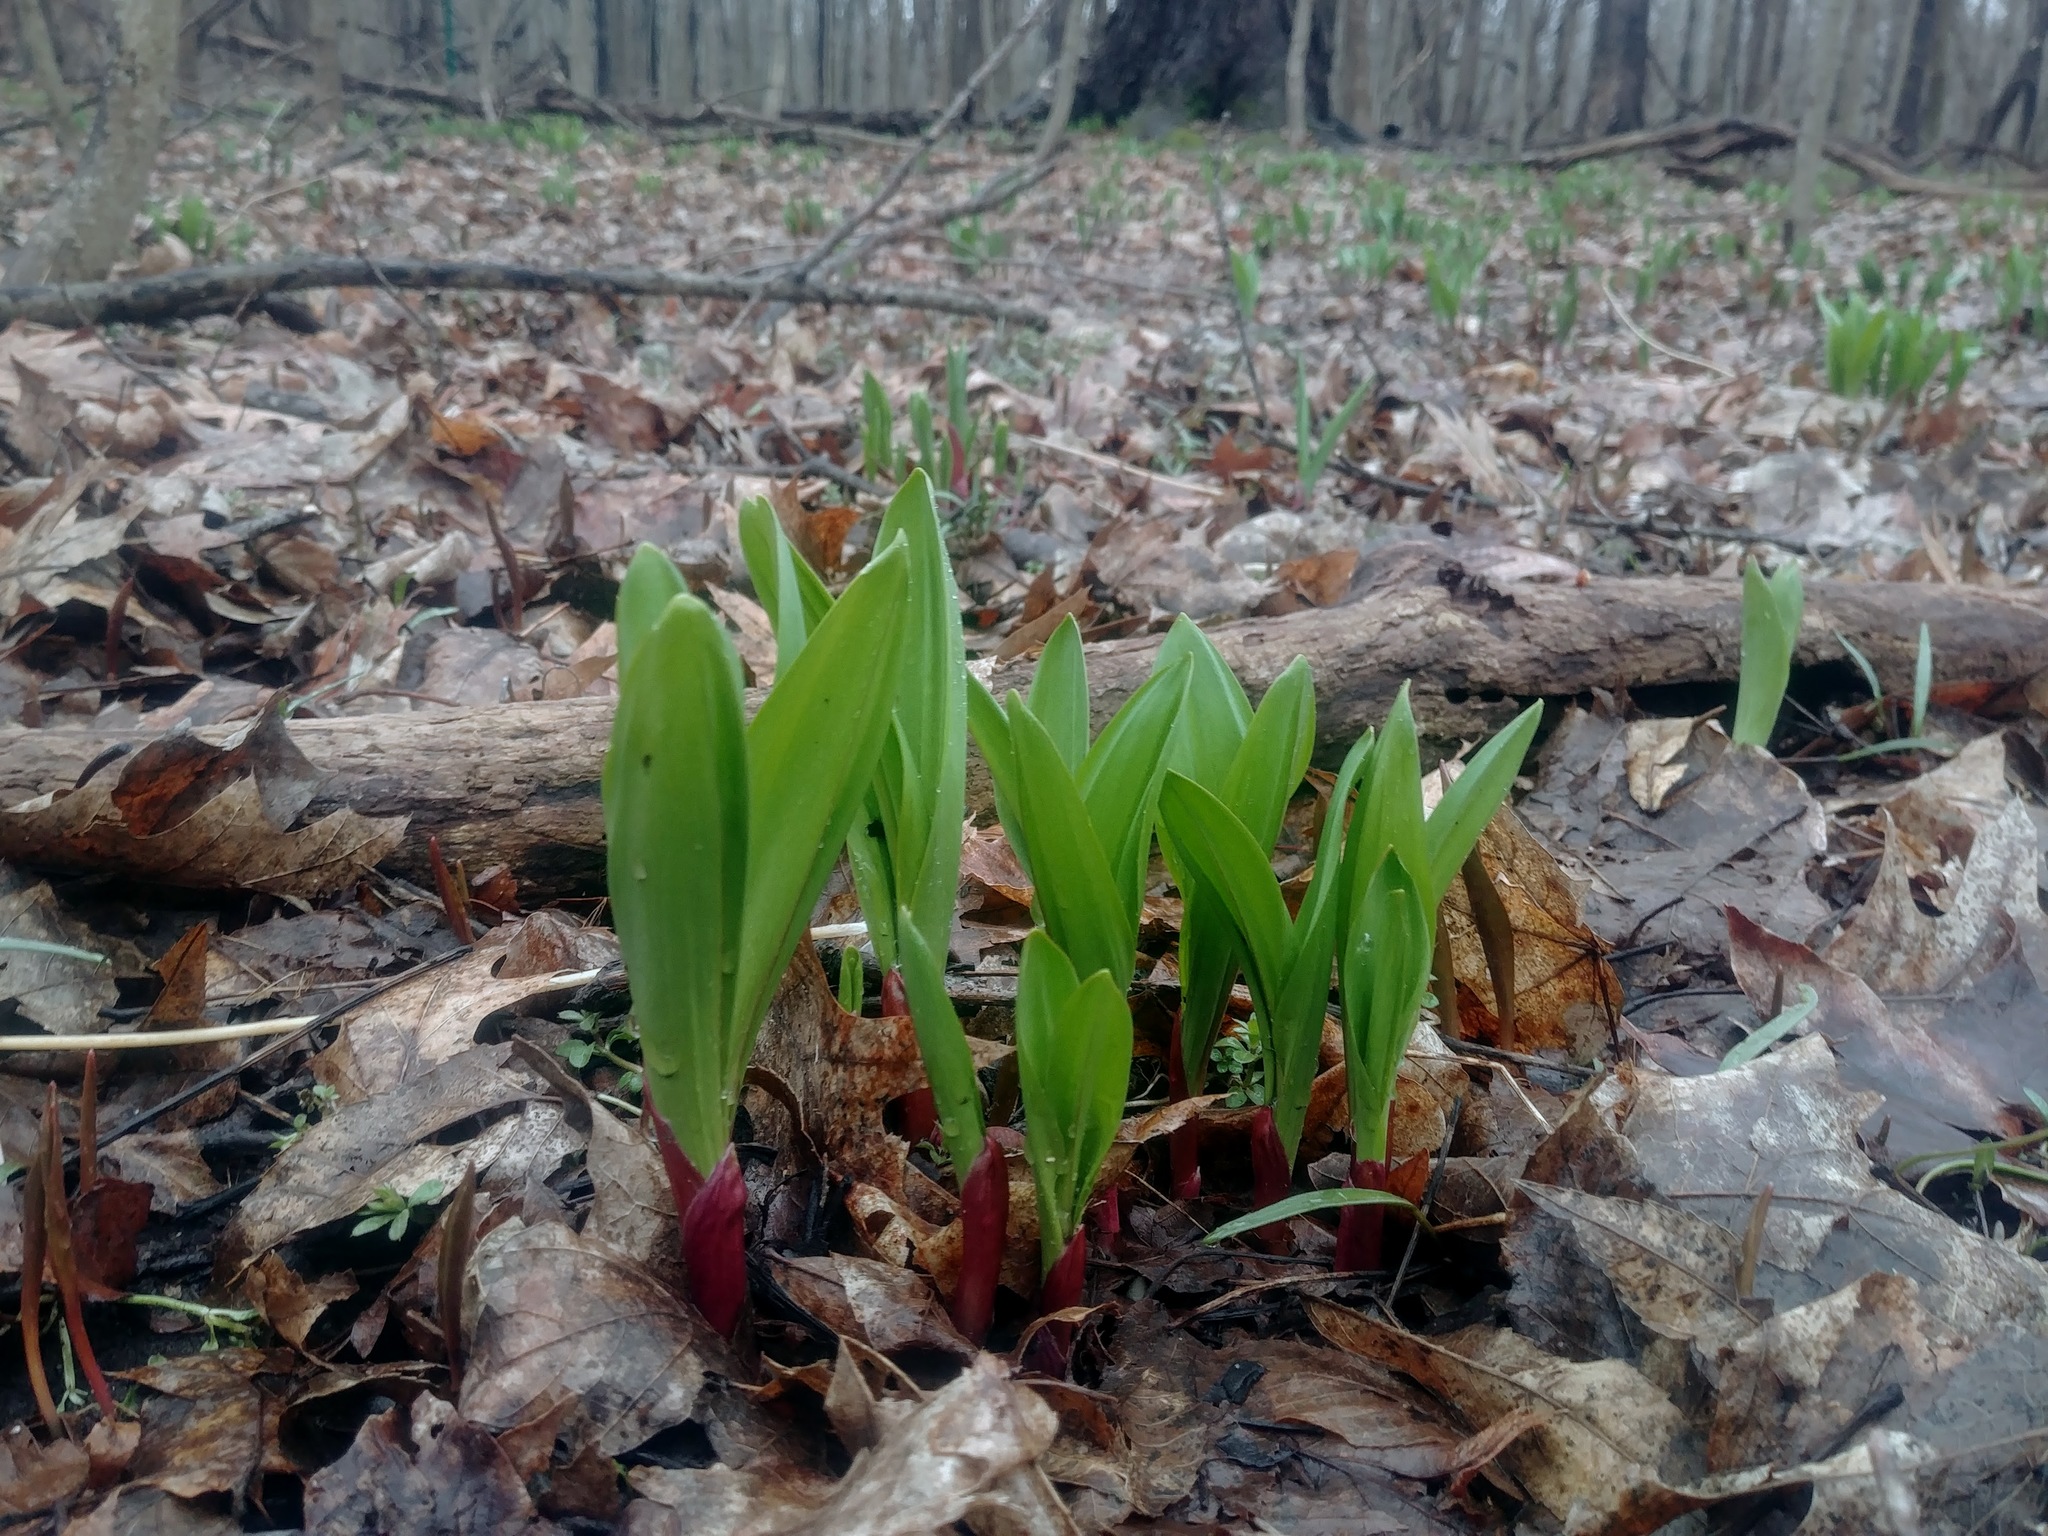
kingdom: Plantae
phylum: Tracheophyta
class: Liliopsida
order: Asparagales
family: Amaryllidaceae
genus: Allium
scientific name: Allium tricoccum
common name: Ramp
